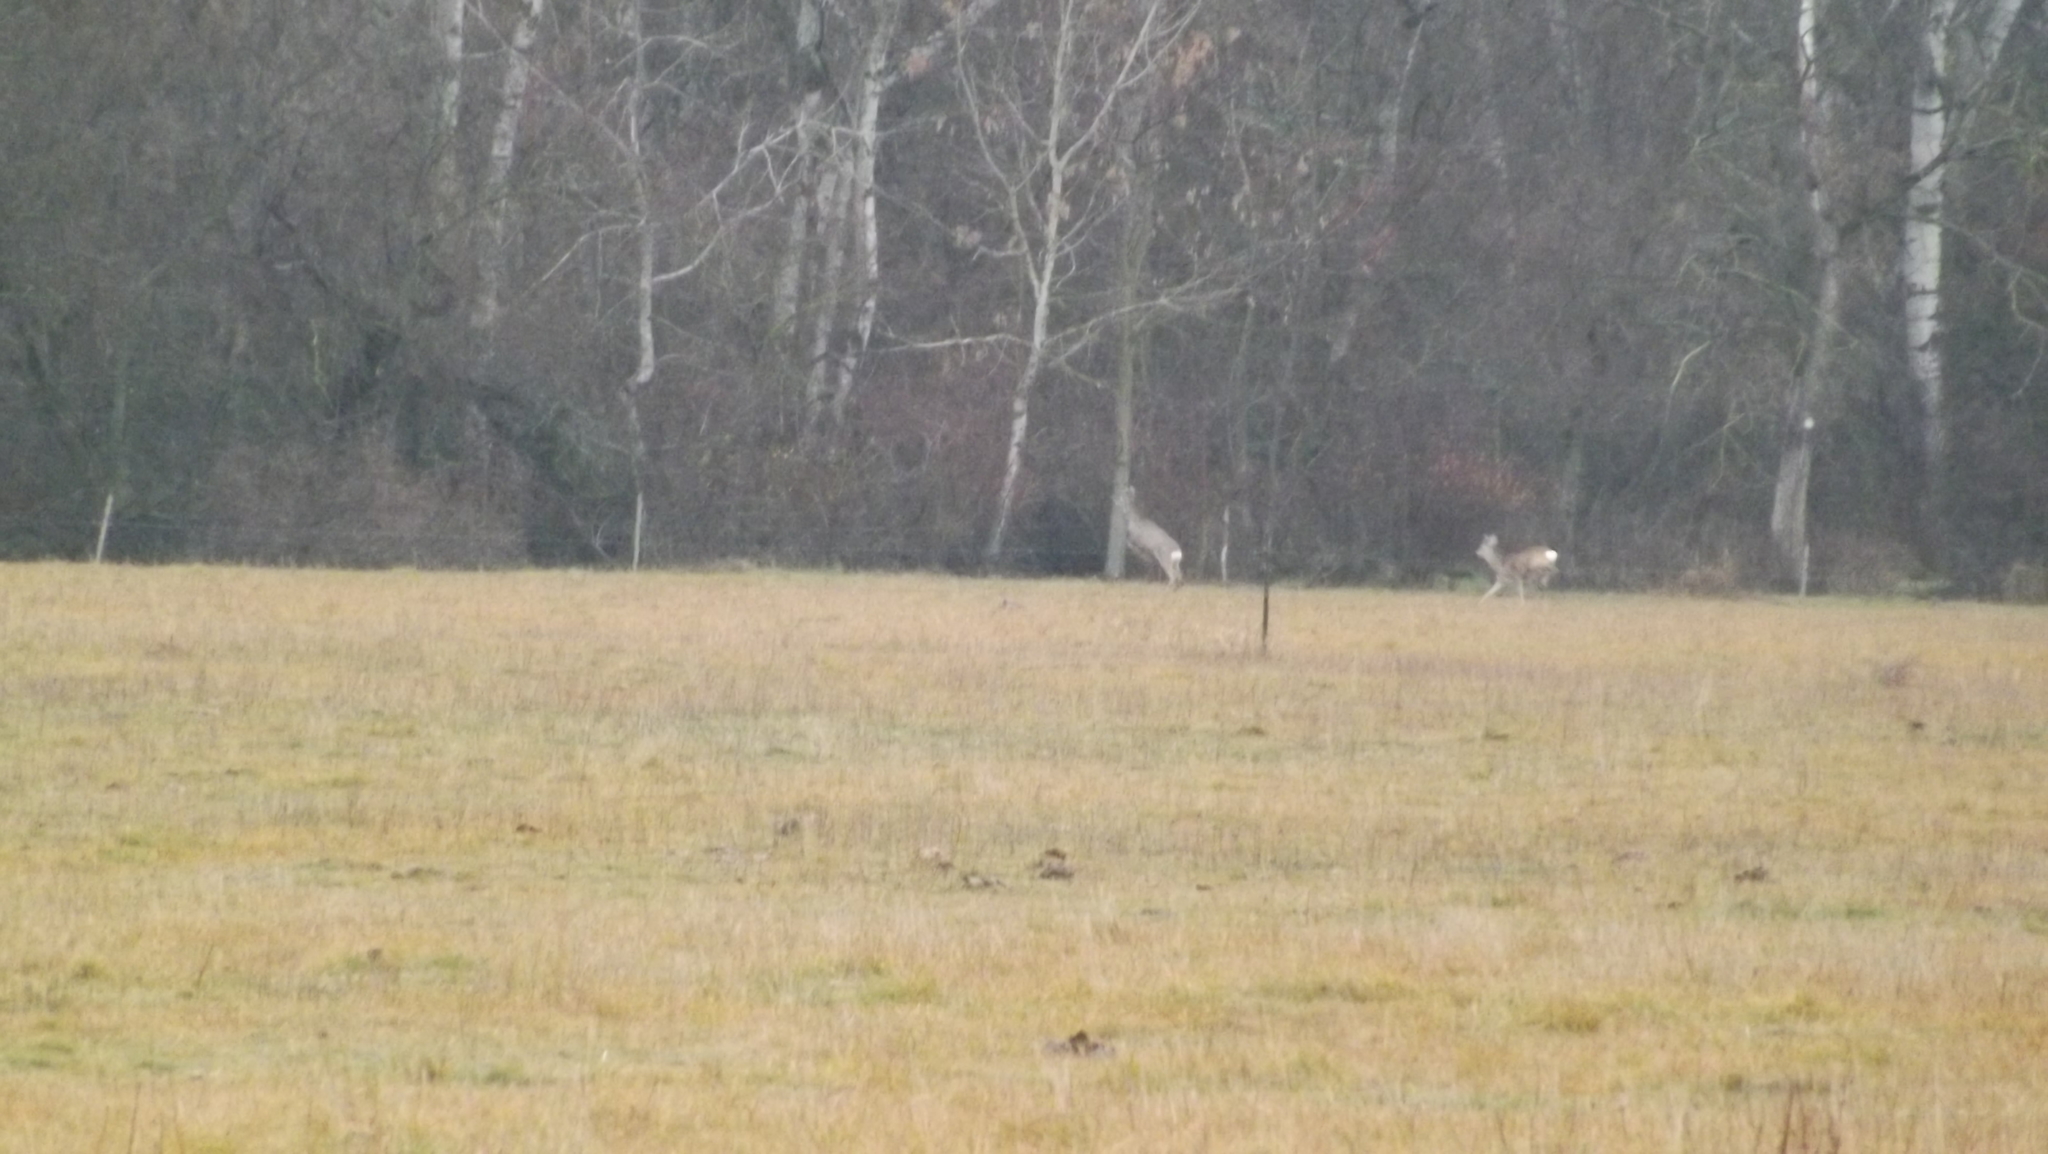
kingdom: Animalia
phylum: Chordata
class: Mammalia
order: Artiodactyla
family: Cervidae
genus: Capreolus
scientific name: Capreolus capreolus
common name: Western roe deer
